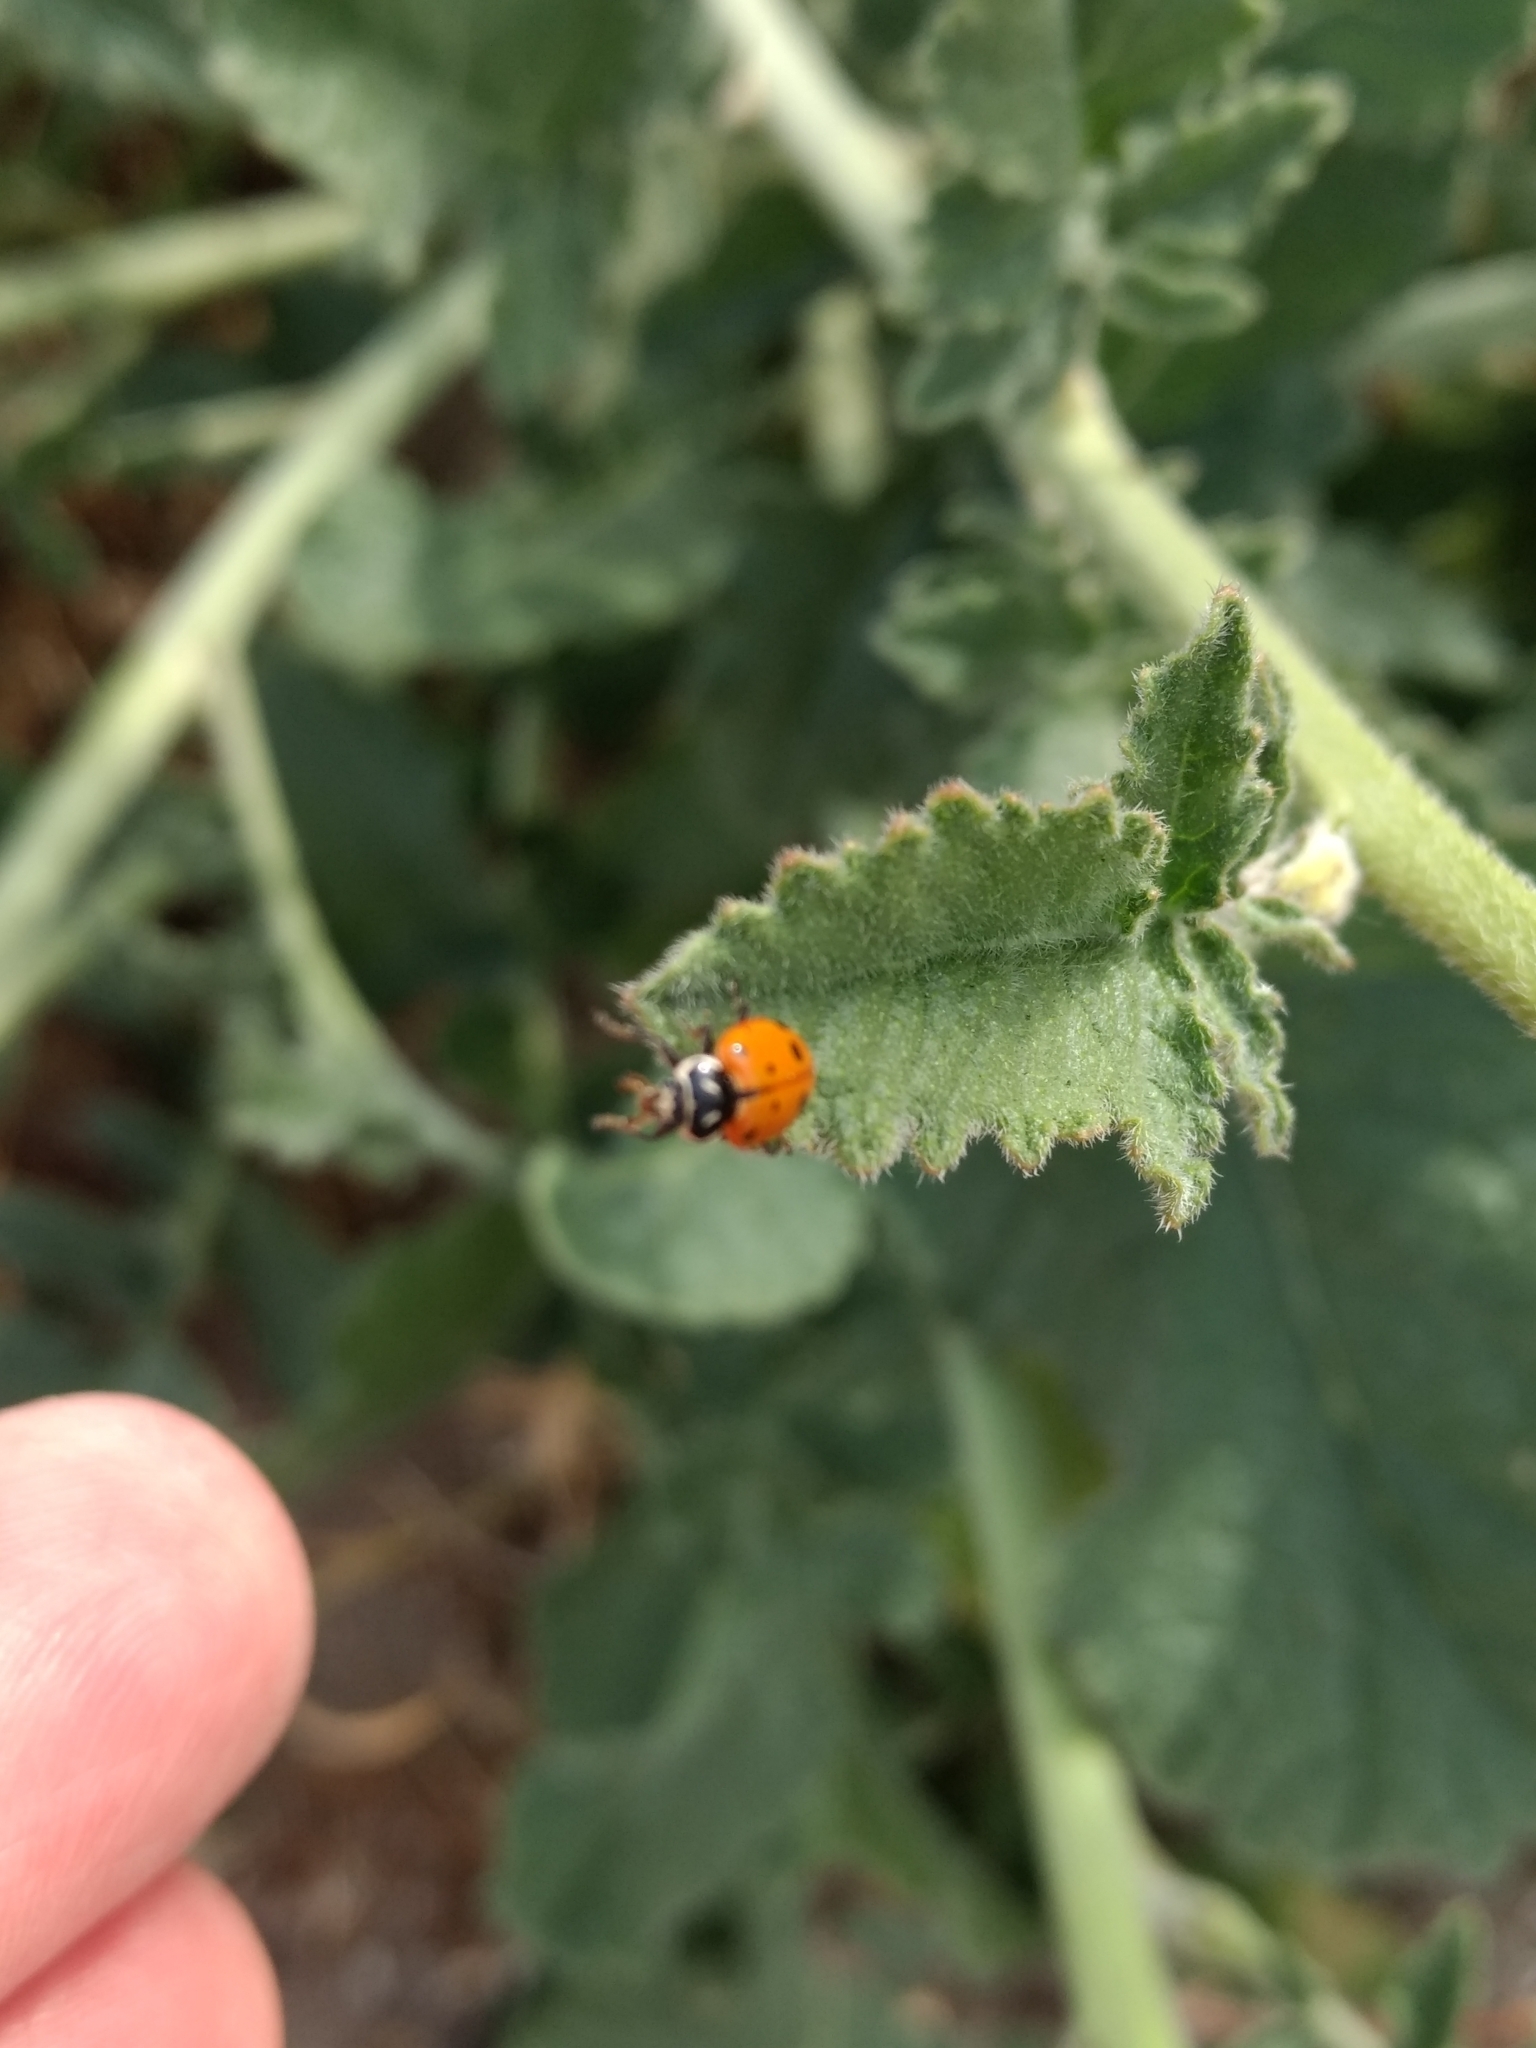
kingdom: Animalia
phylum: Arthropoda
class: Insecta
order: Coleoptera
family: Coccinellidae
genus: Hippodamia
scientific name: Hippodamia convergens
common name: Convergent lady beetle
